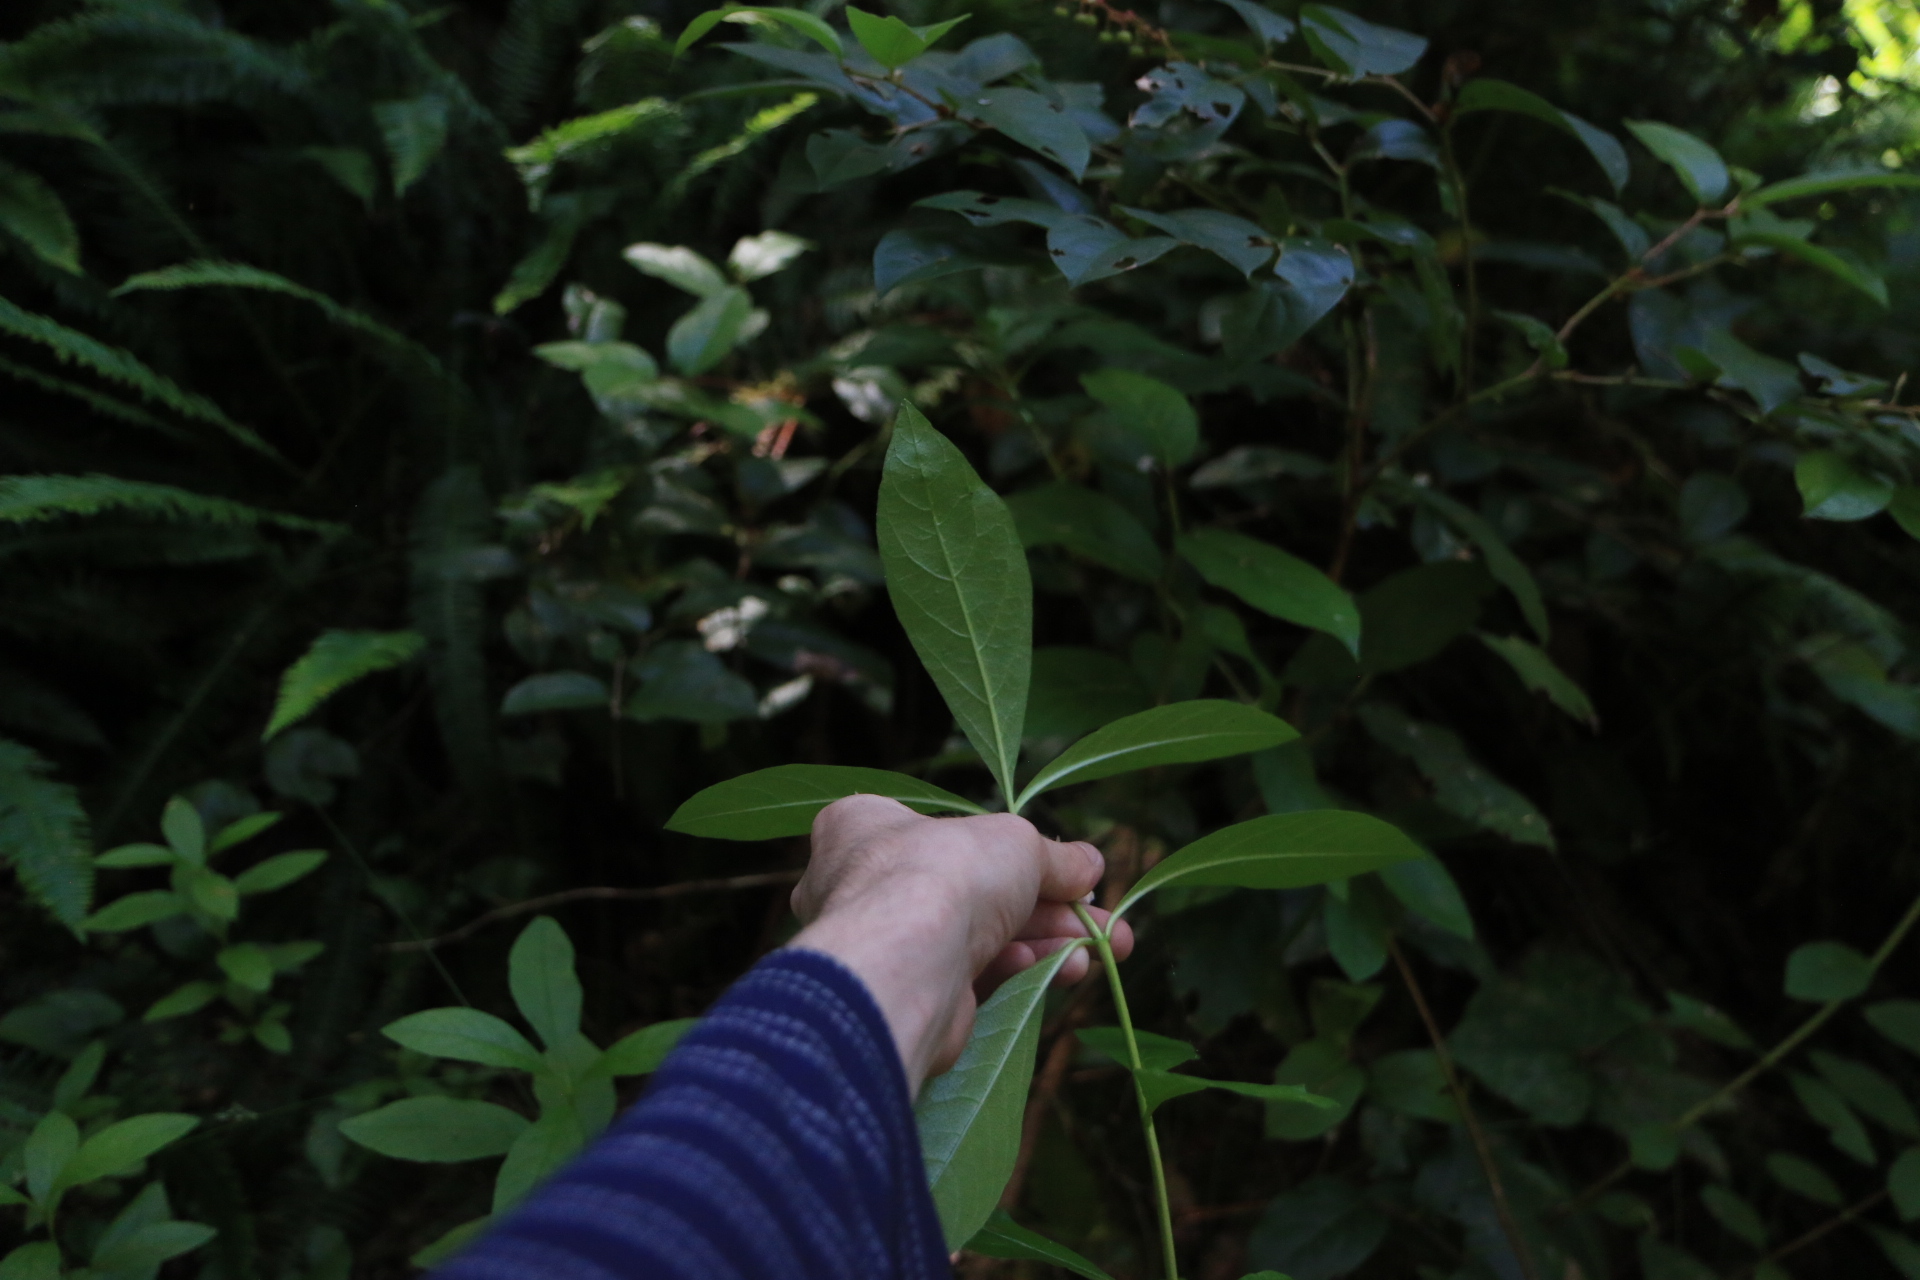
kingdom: Plantae
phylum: Tracheophyta
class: Magnoliopsida
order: Ericales
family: Ericaceae
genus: Rhododendron
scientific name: Rhododendron menziesii
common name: Pacific menziesia
